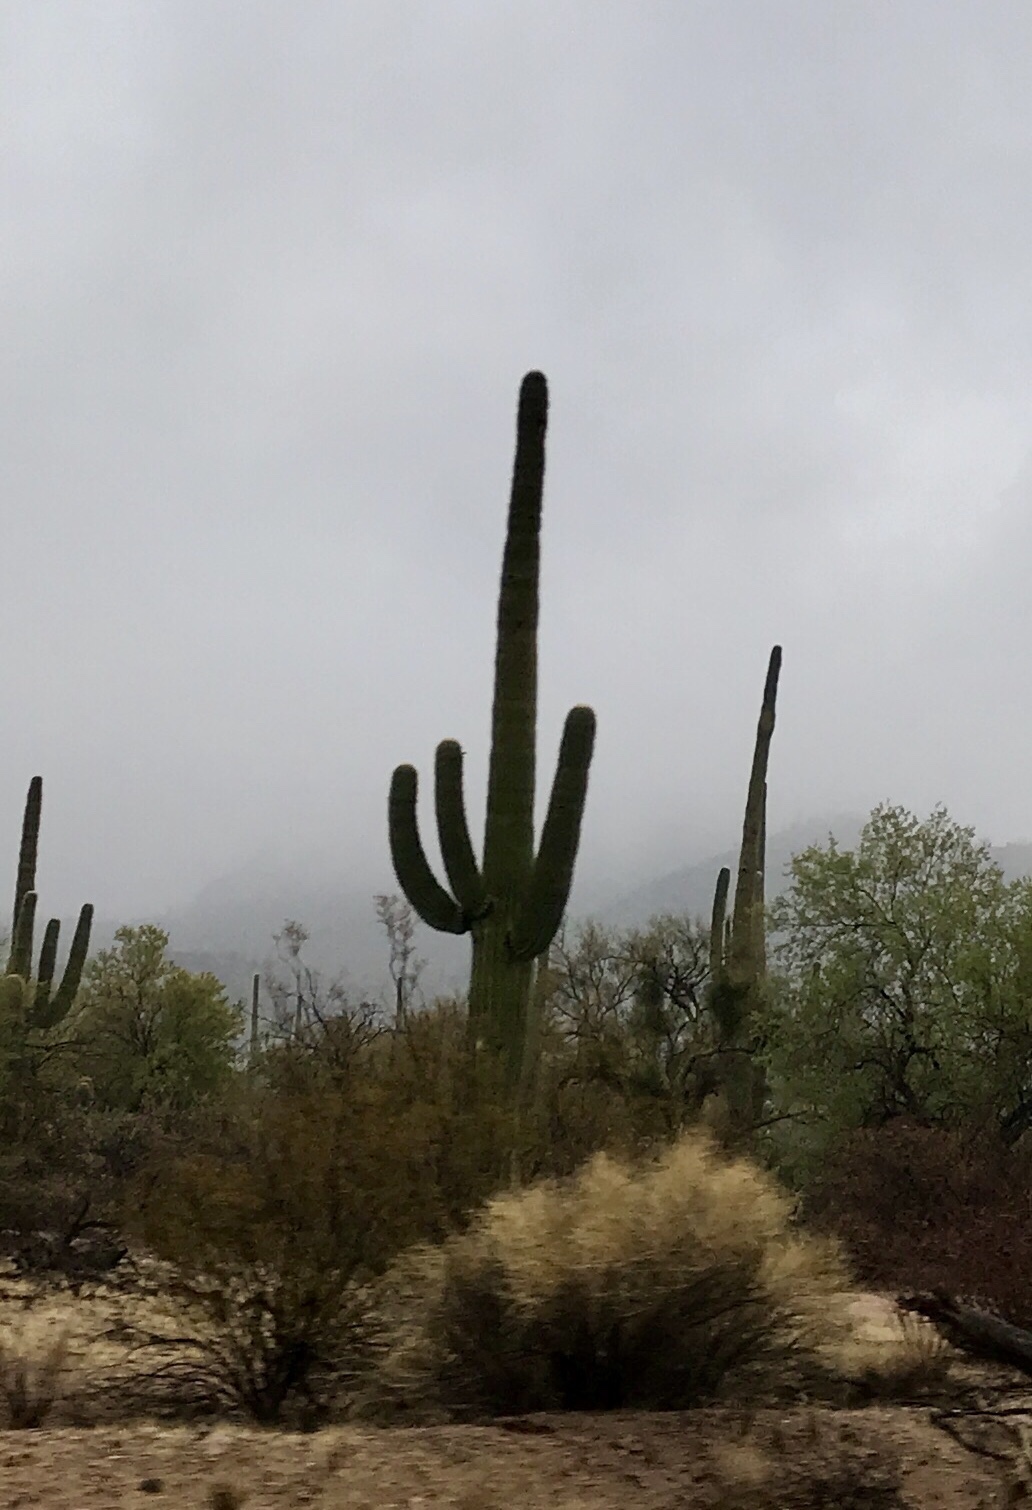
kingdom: Plantae
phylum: Tracheophyta
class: Magnoliopsida
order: Caryophyllales
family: Cactaceae
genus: Carnegiea
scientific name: Carnegiea gigantea
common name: Saguaro
